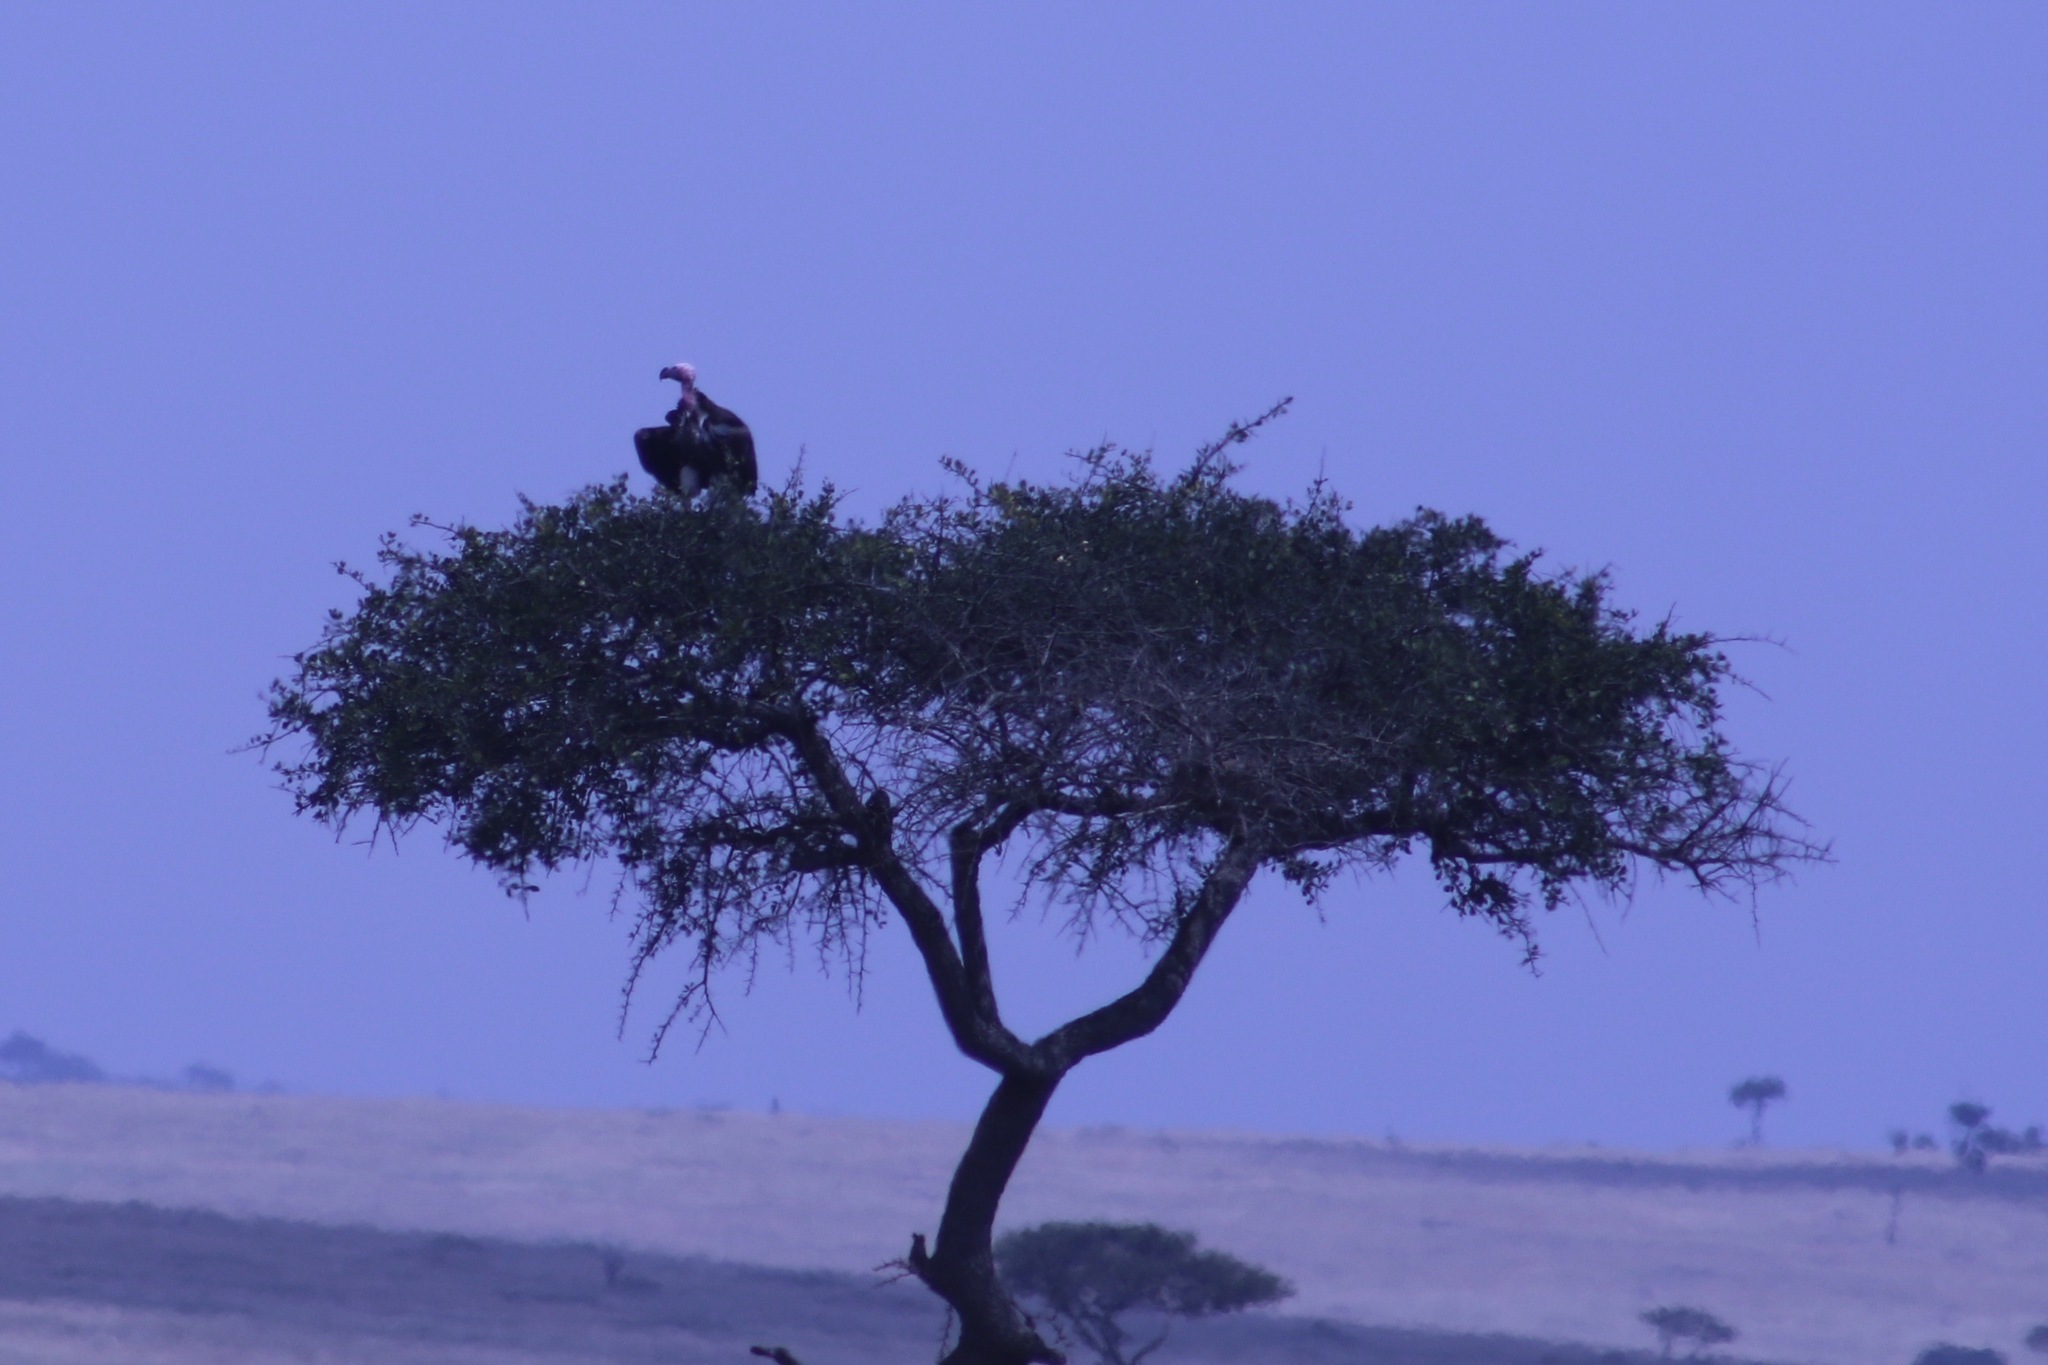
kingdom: Animalia
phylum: Chordata
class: Aves
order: Accipitriformes
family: Accipitridae
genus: Torgos
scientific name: Torgos tracheliotos
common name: Lappet-faced vulture
